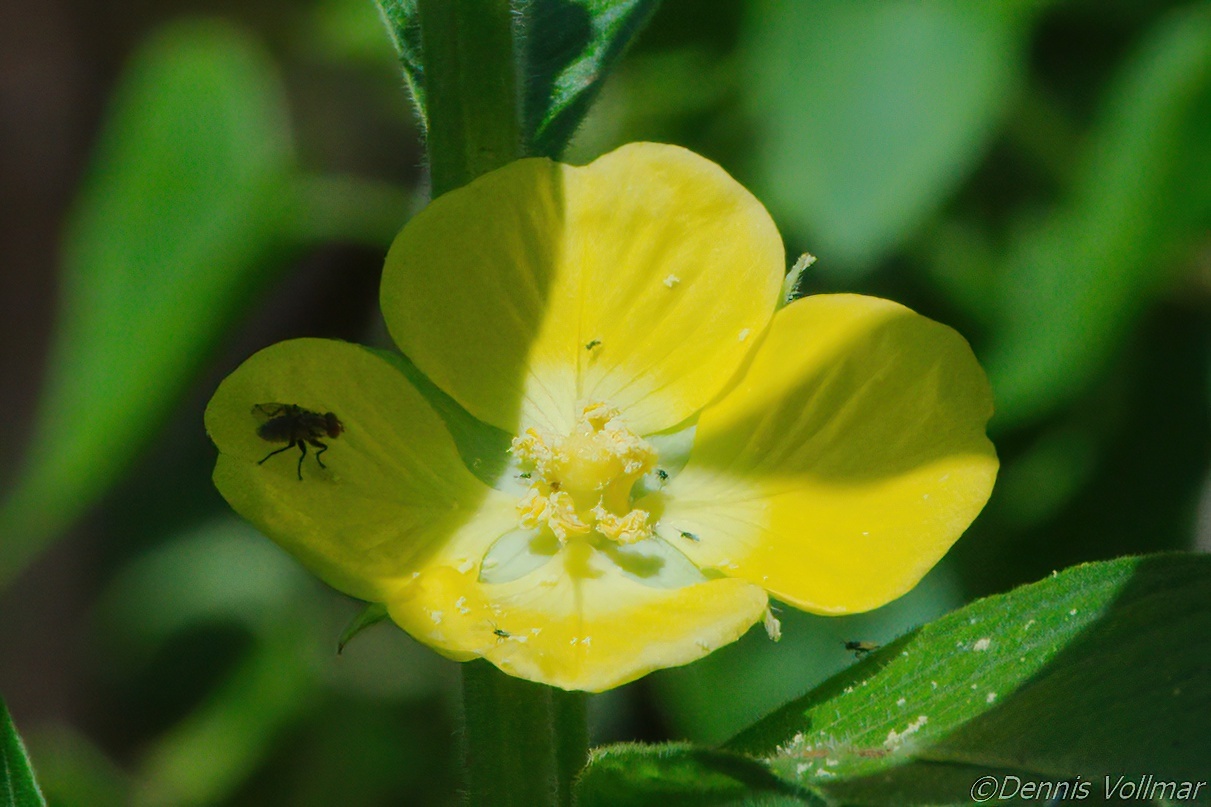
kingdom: Plantae
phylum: Tracheophyta
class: Magnoliopsida
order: Myrtales
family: Onagraceae
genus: Ludwigia
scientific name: Ludwigia peruviana
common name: Peruvian primrose-willow
